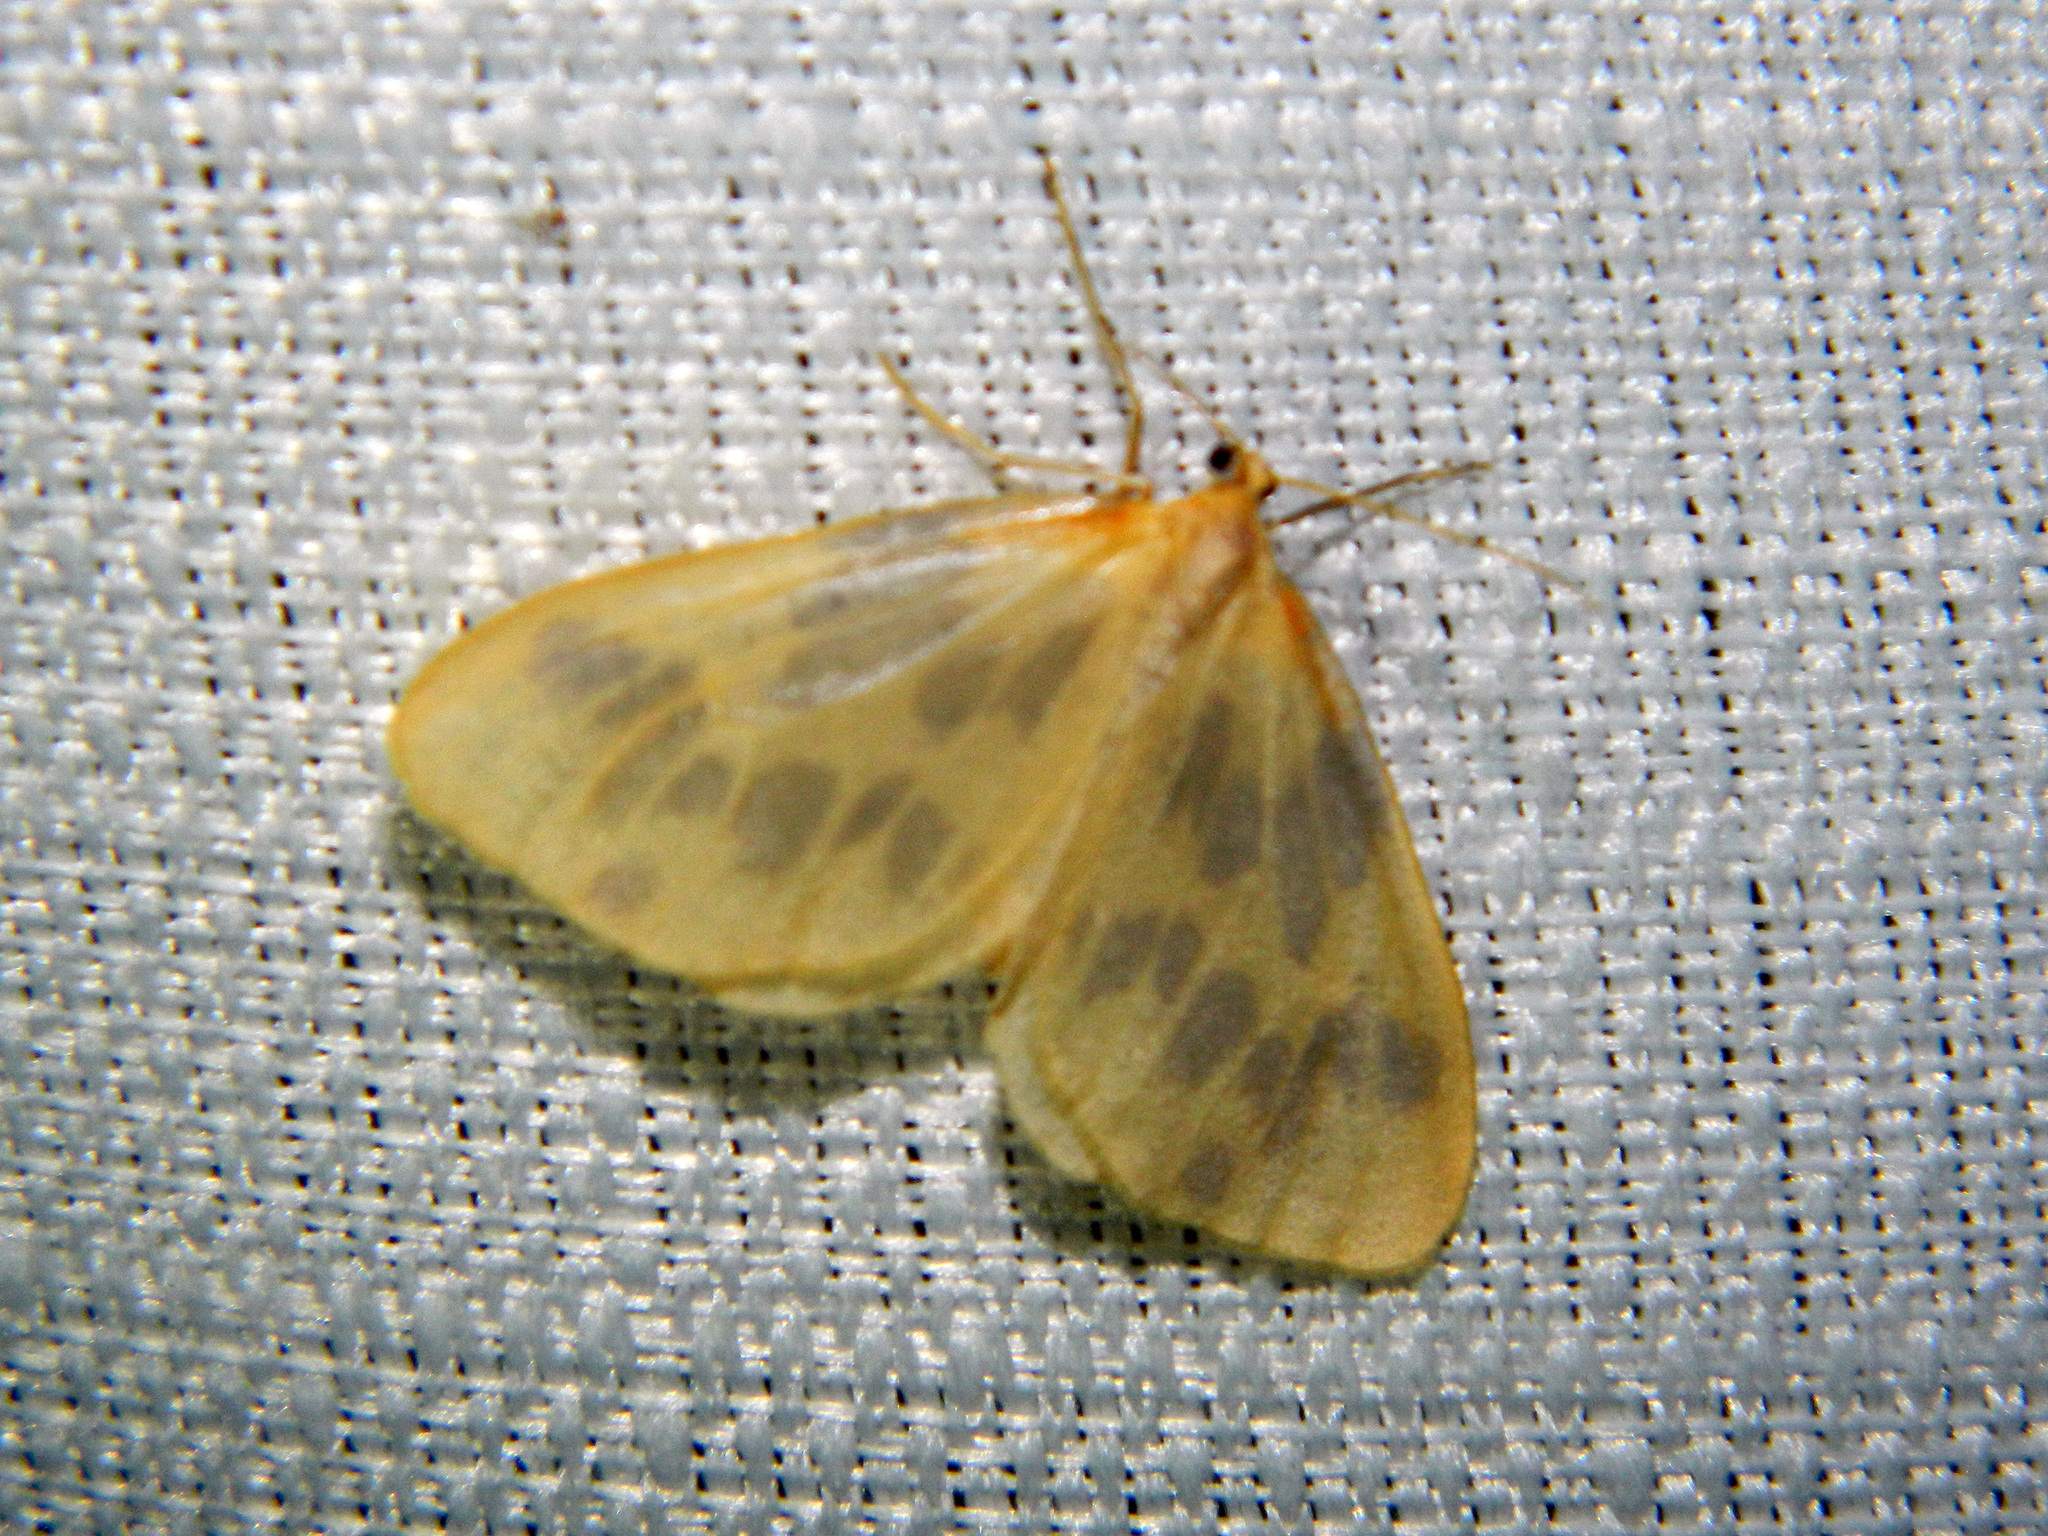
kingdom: Animalia
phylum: Arthropoda
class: Insecta
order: Lepidoptera
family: Geometridae
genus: Eubaphe
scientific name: Eubaphe mendica
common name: Beggar
